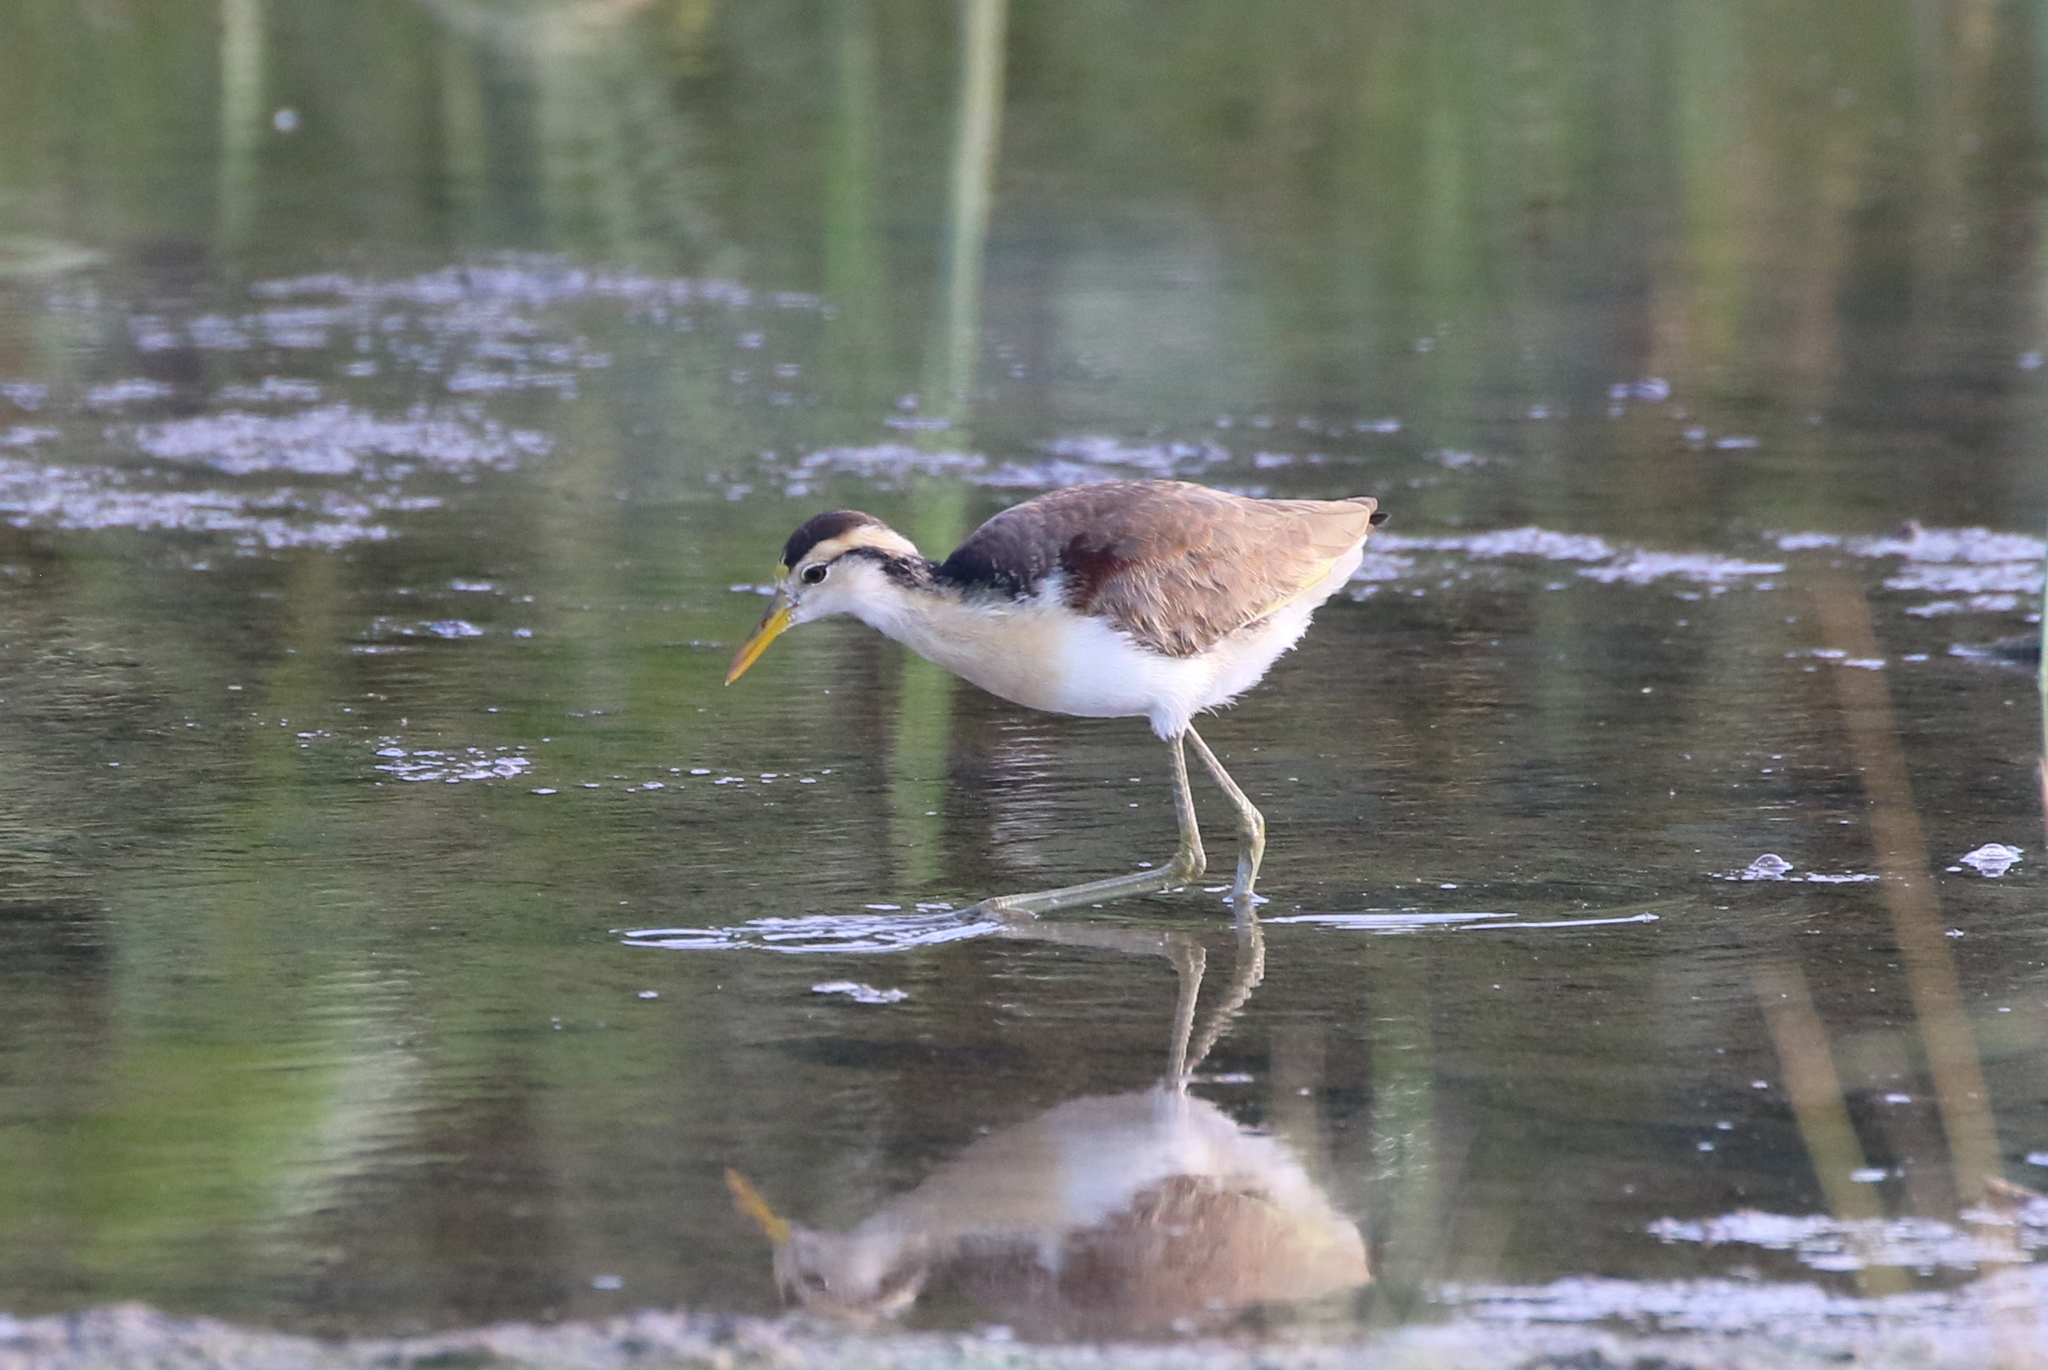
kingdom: Animalia
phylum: Chordata
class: Aves
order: Charadriiformes
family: Jacanidae
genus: Jacana
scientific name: Jacana spinosa
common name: Northern jacana
